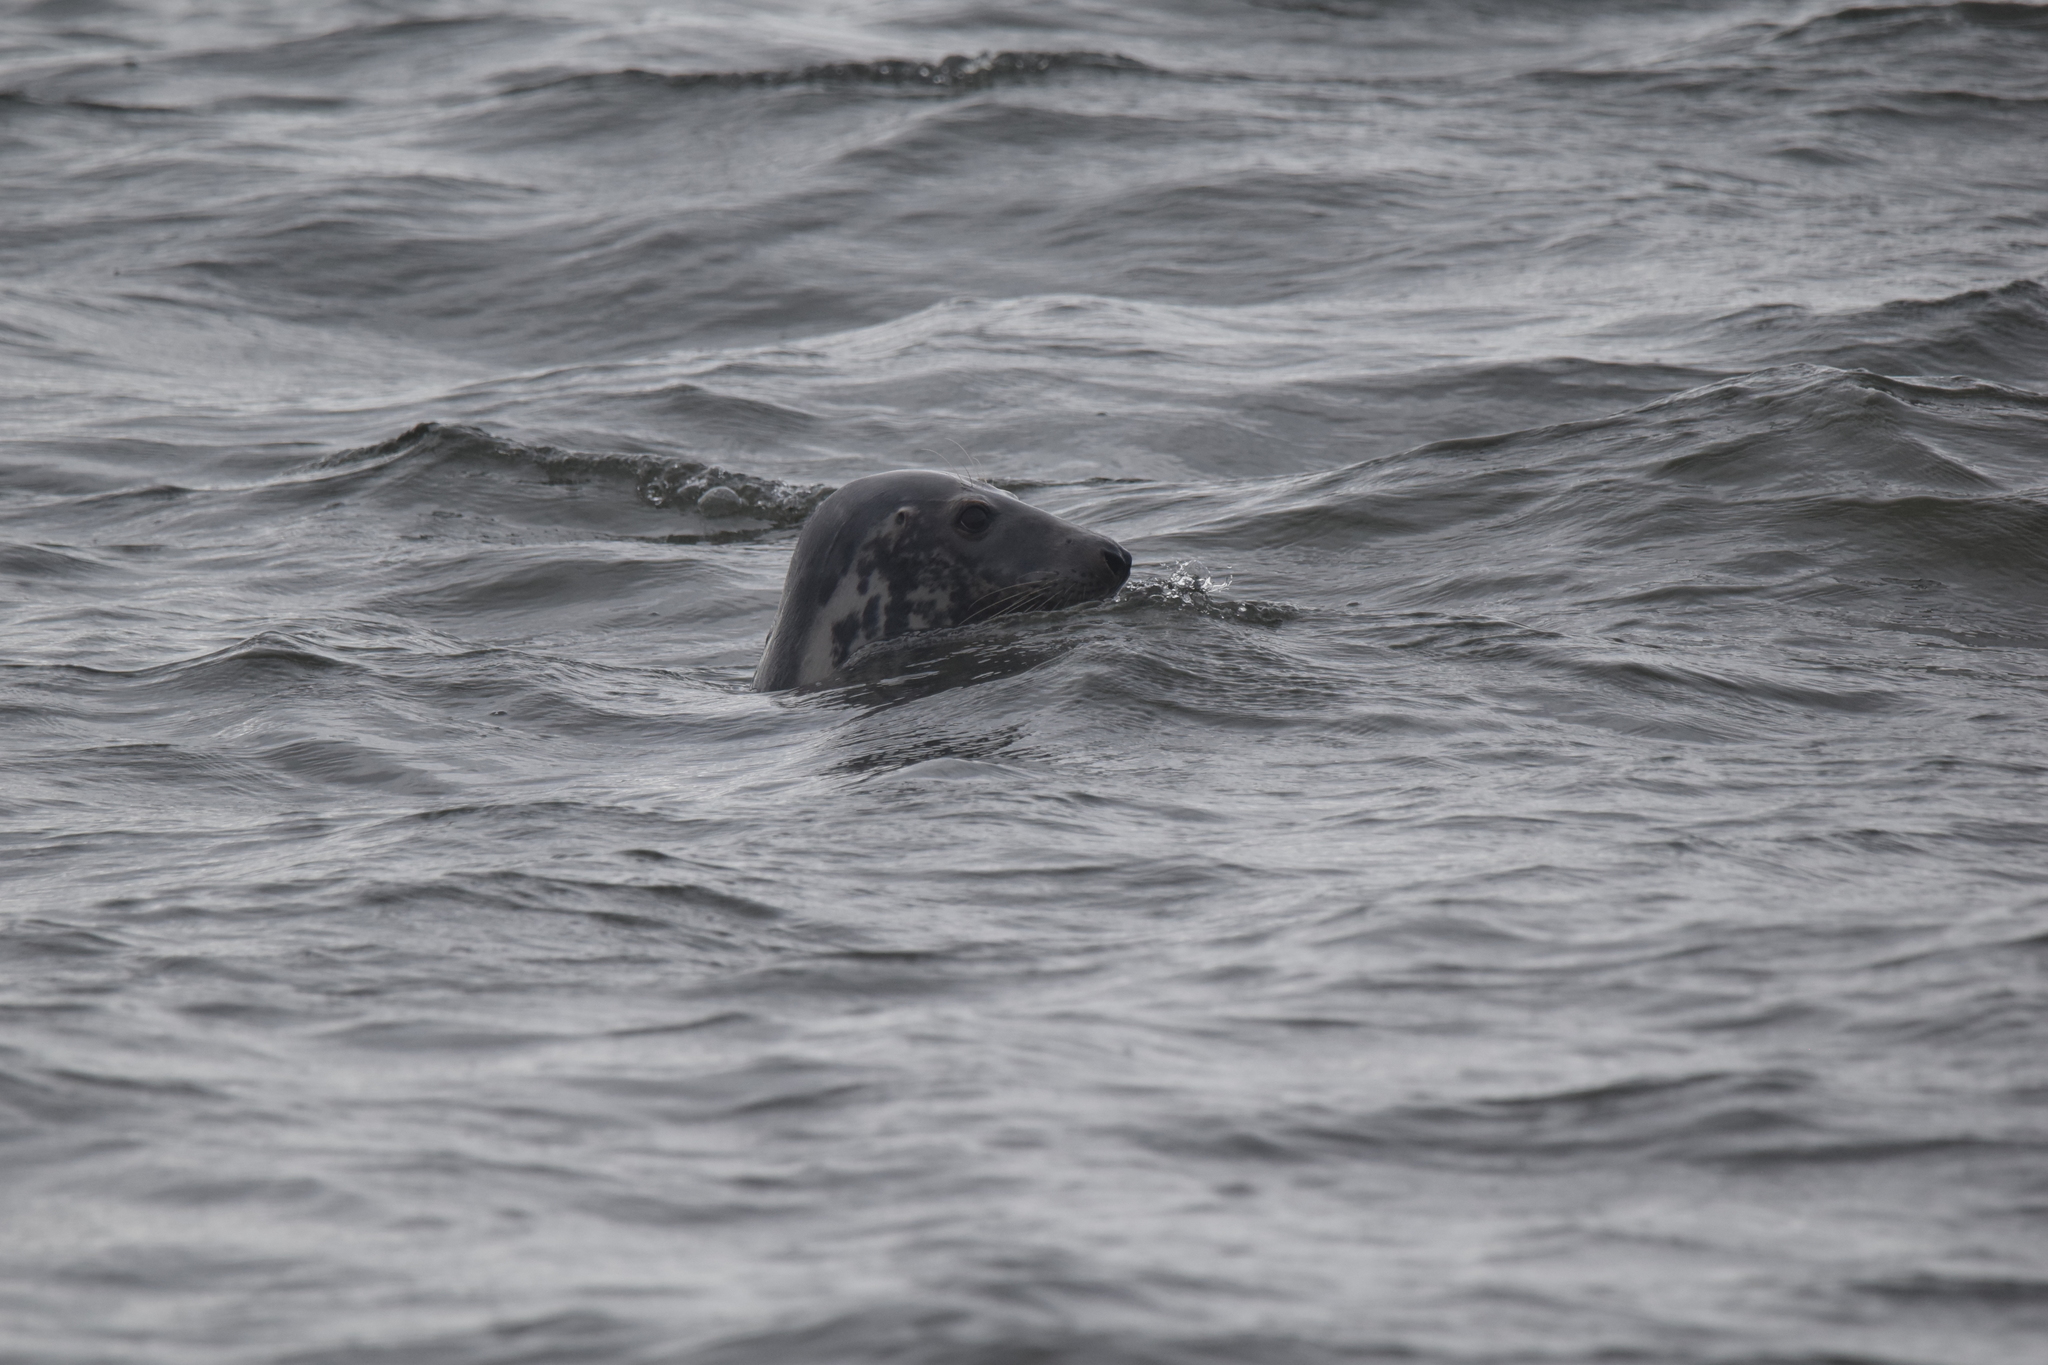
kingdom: Animalia
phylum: Chordata
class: Mammalia
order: Carnivora
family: Phocidae
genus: Halichoerus
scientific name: Halichoerus grypus
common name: Grey seal
